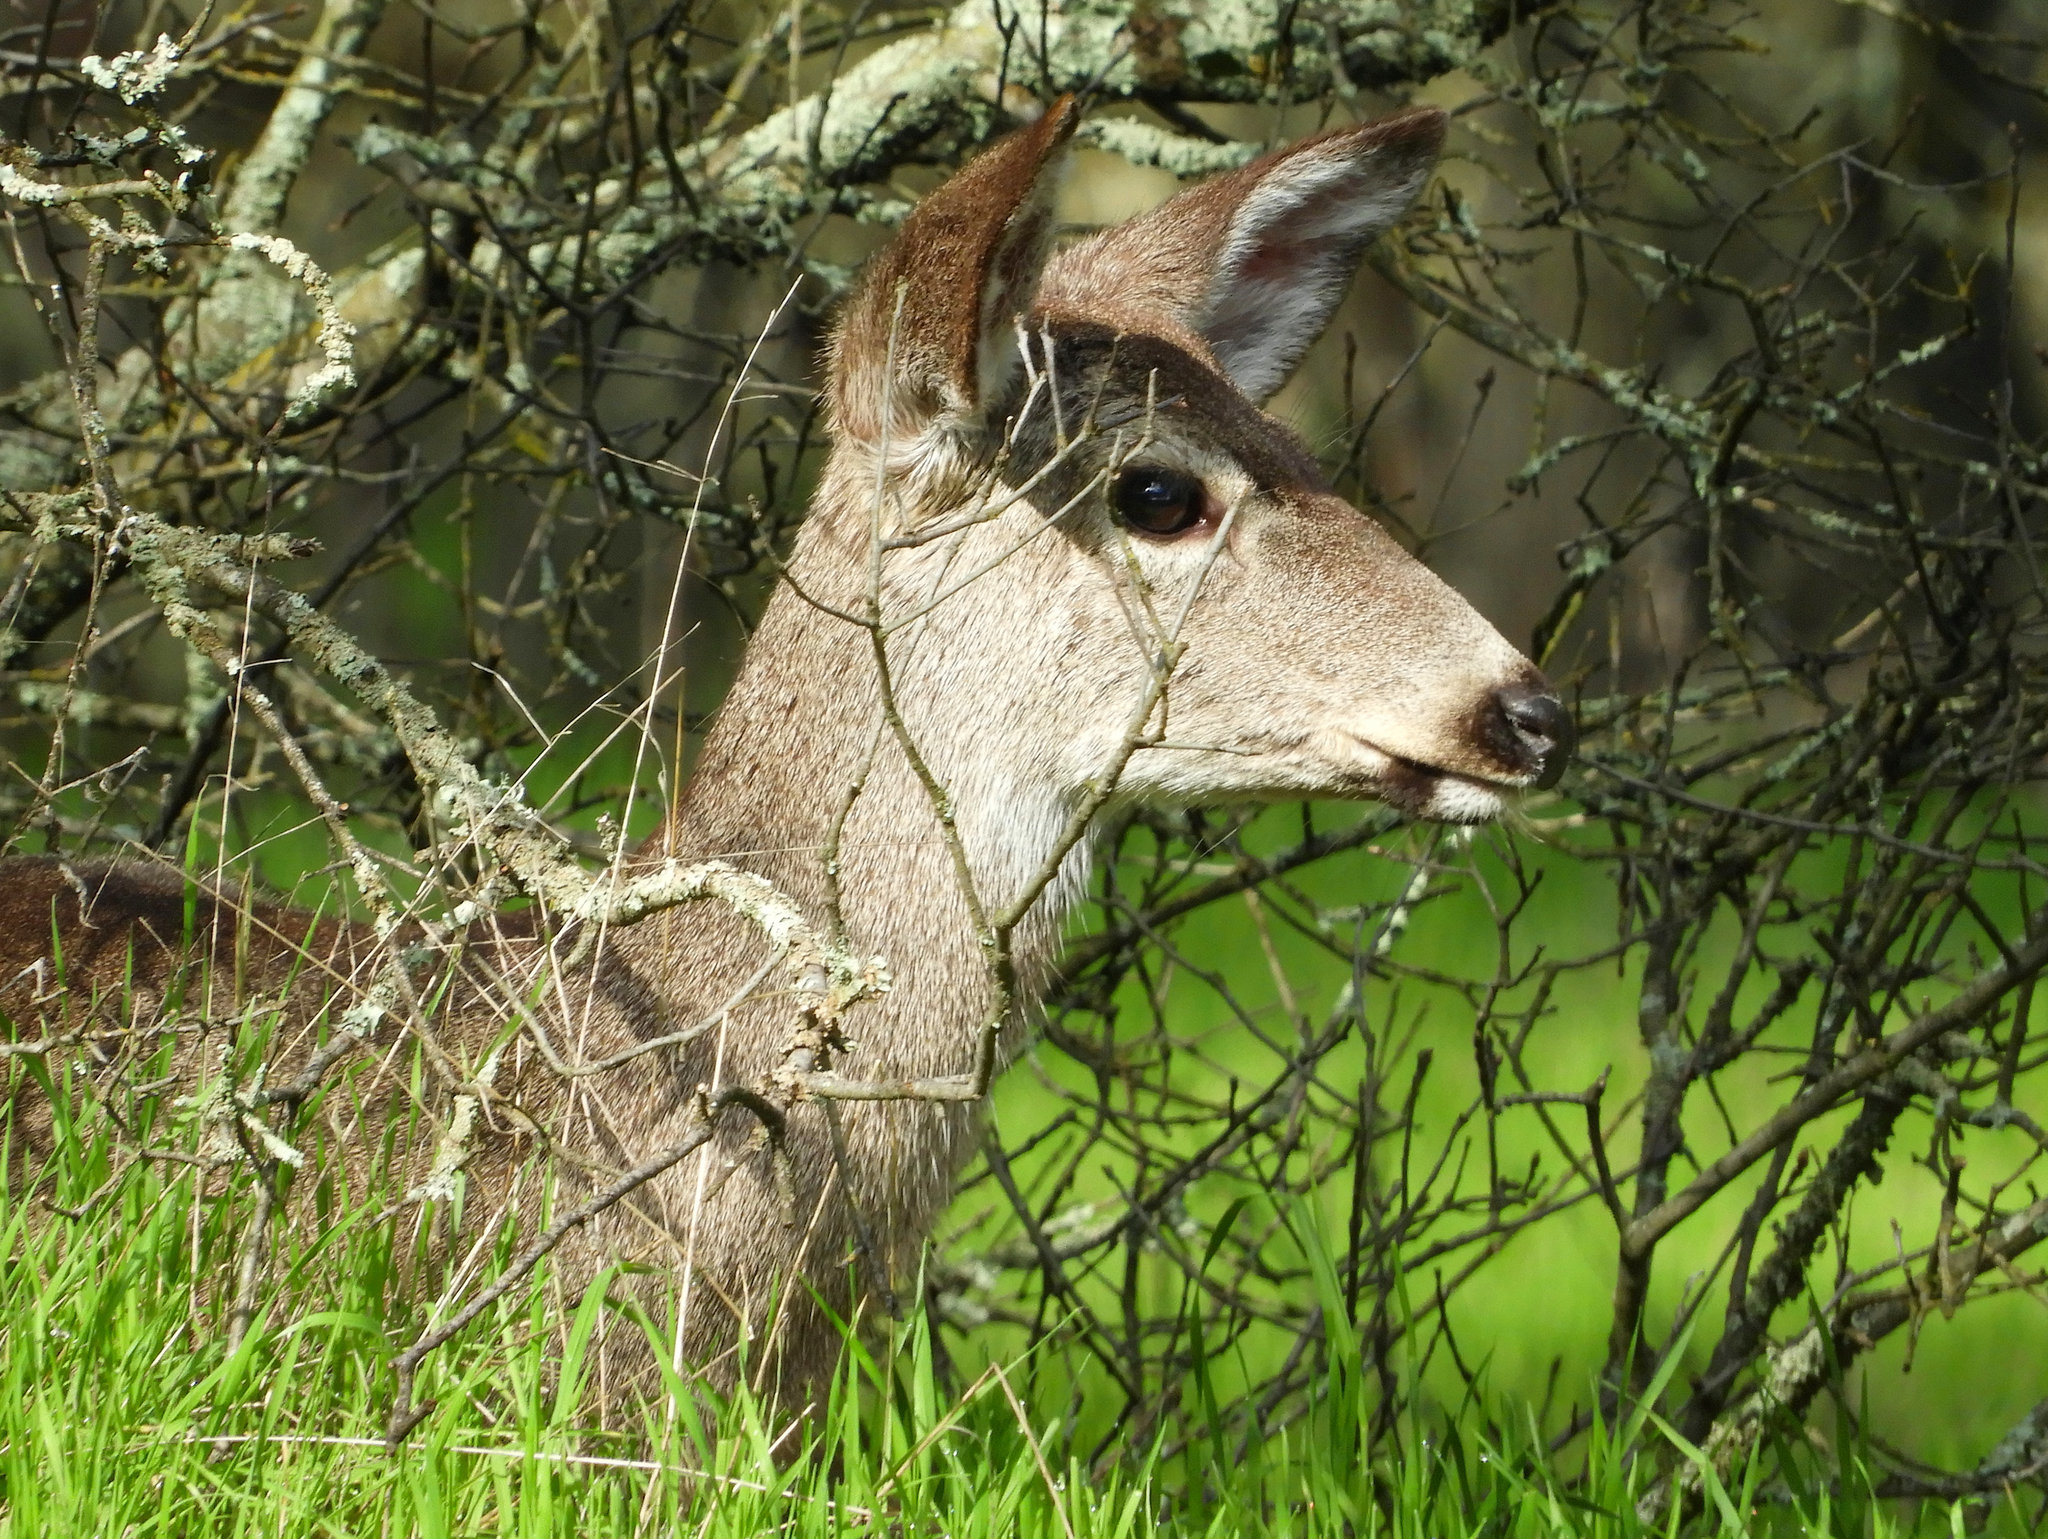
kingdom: Animalia
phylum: Chordata
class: Mammalia
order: Artiodactyla
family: Cervidae
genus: Odocoileus
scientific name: Odocoileus hemionus
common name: Mule deer
